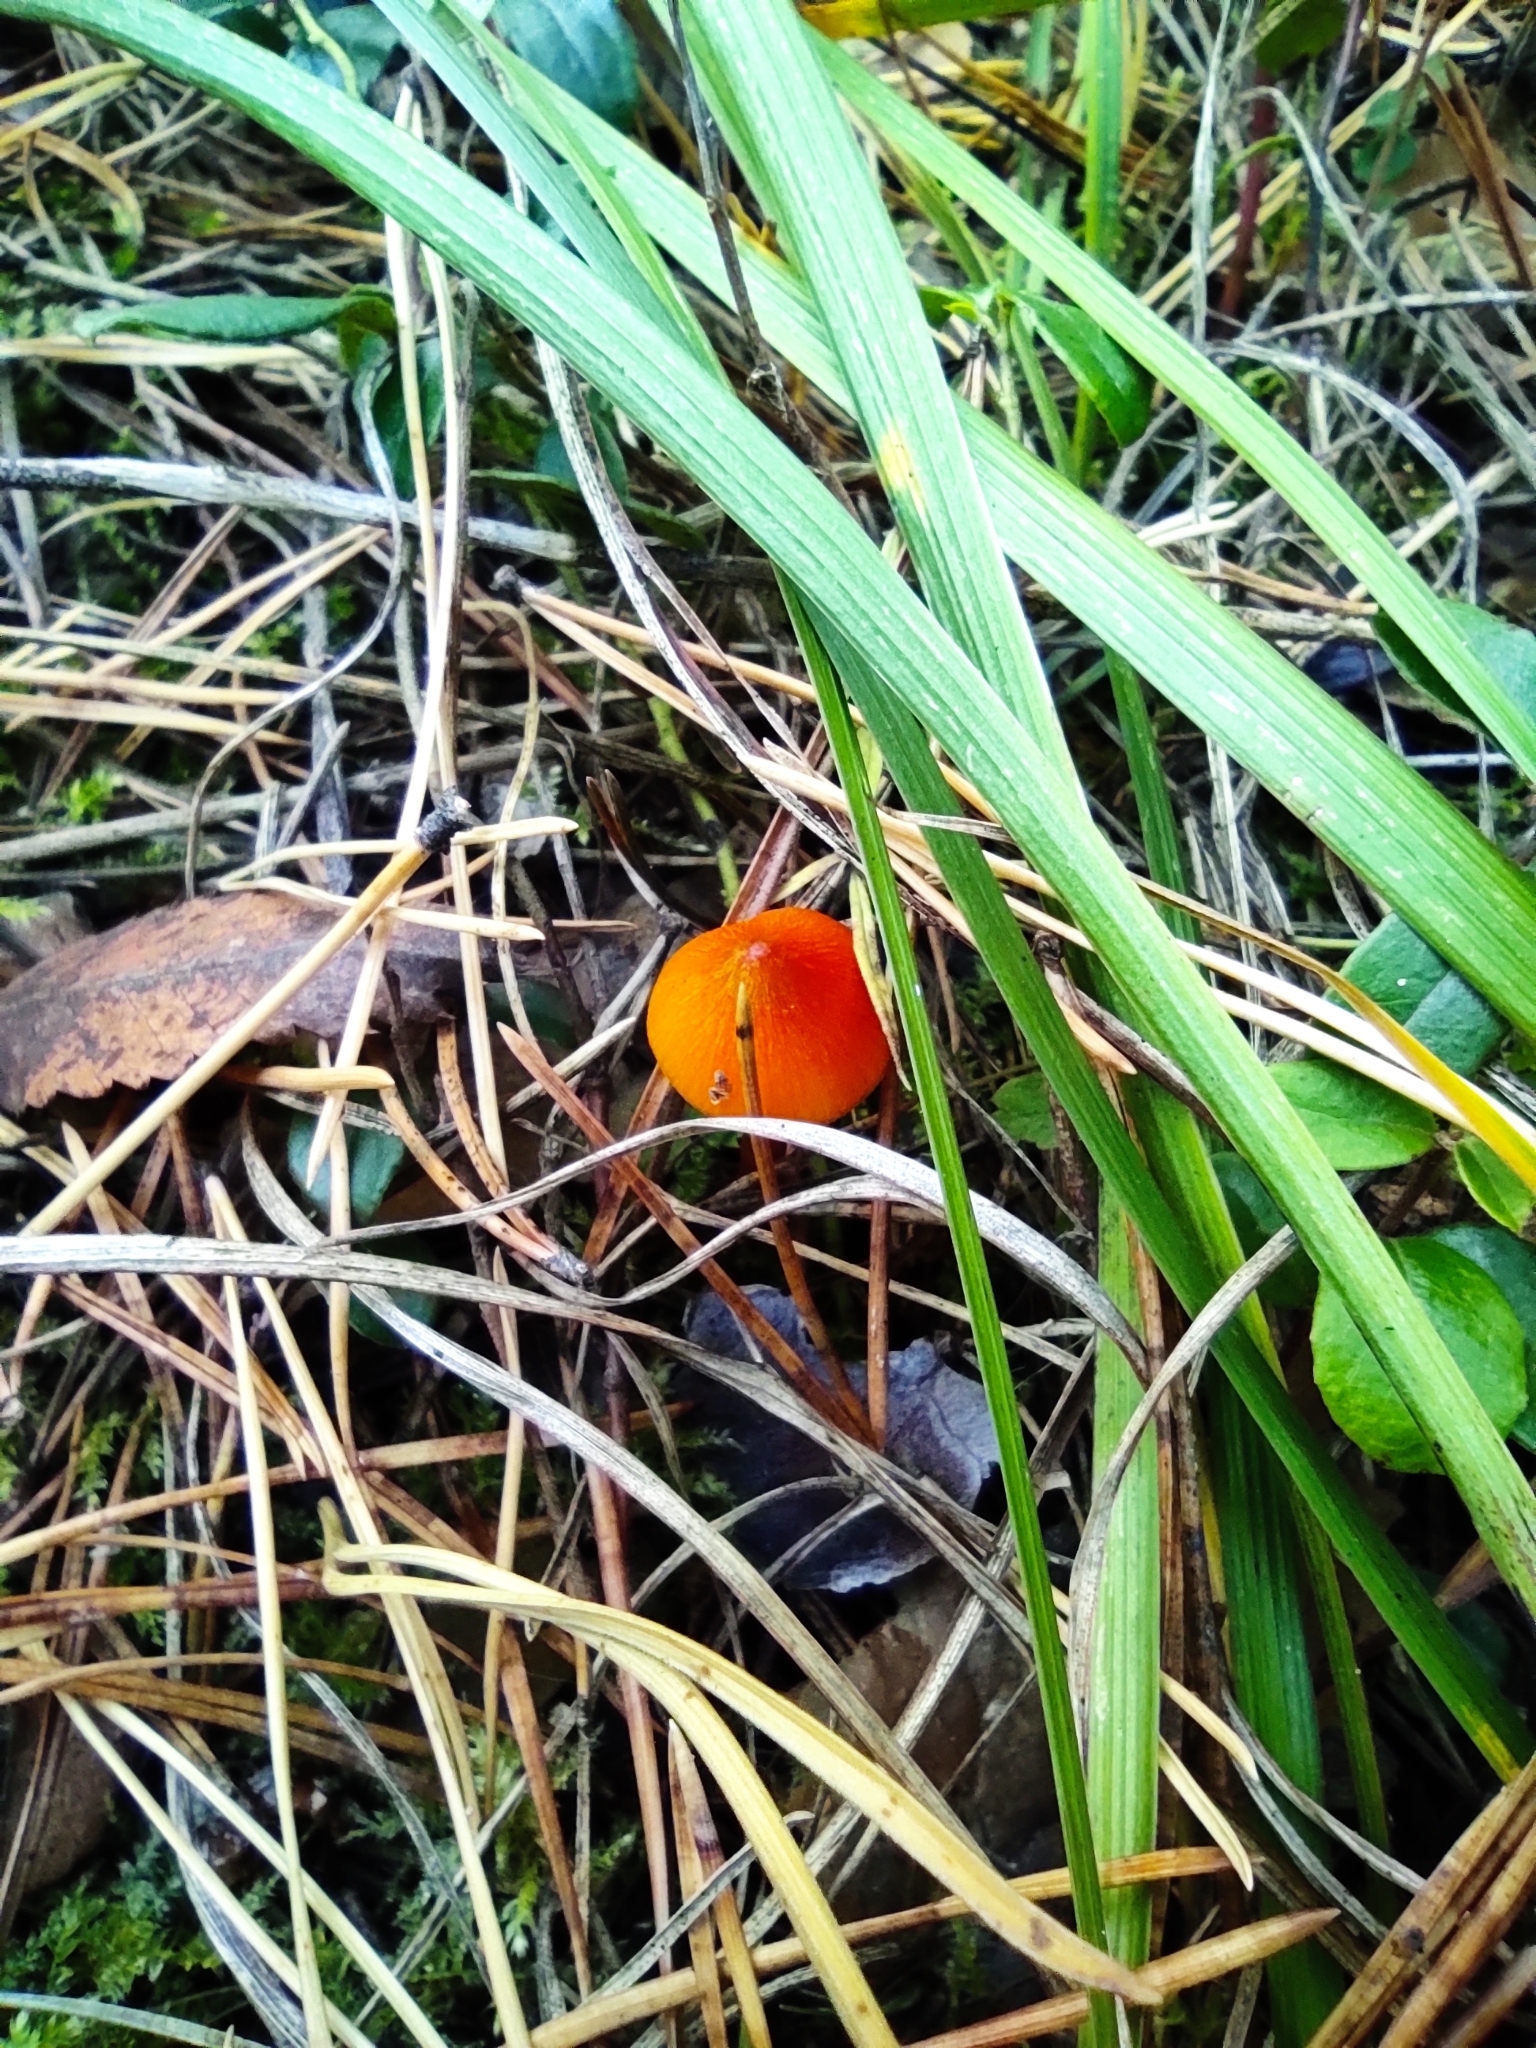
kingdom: Fungi
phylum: Basidiomycota
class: Agaricomycetes
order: Agaricales
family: Hygrophoraceae
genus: Hygrocybe
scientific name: Hygrocybe conica
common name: Blackening wax-cap
